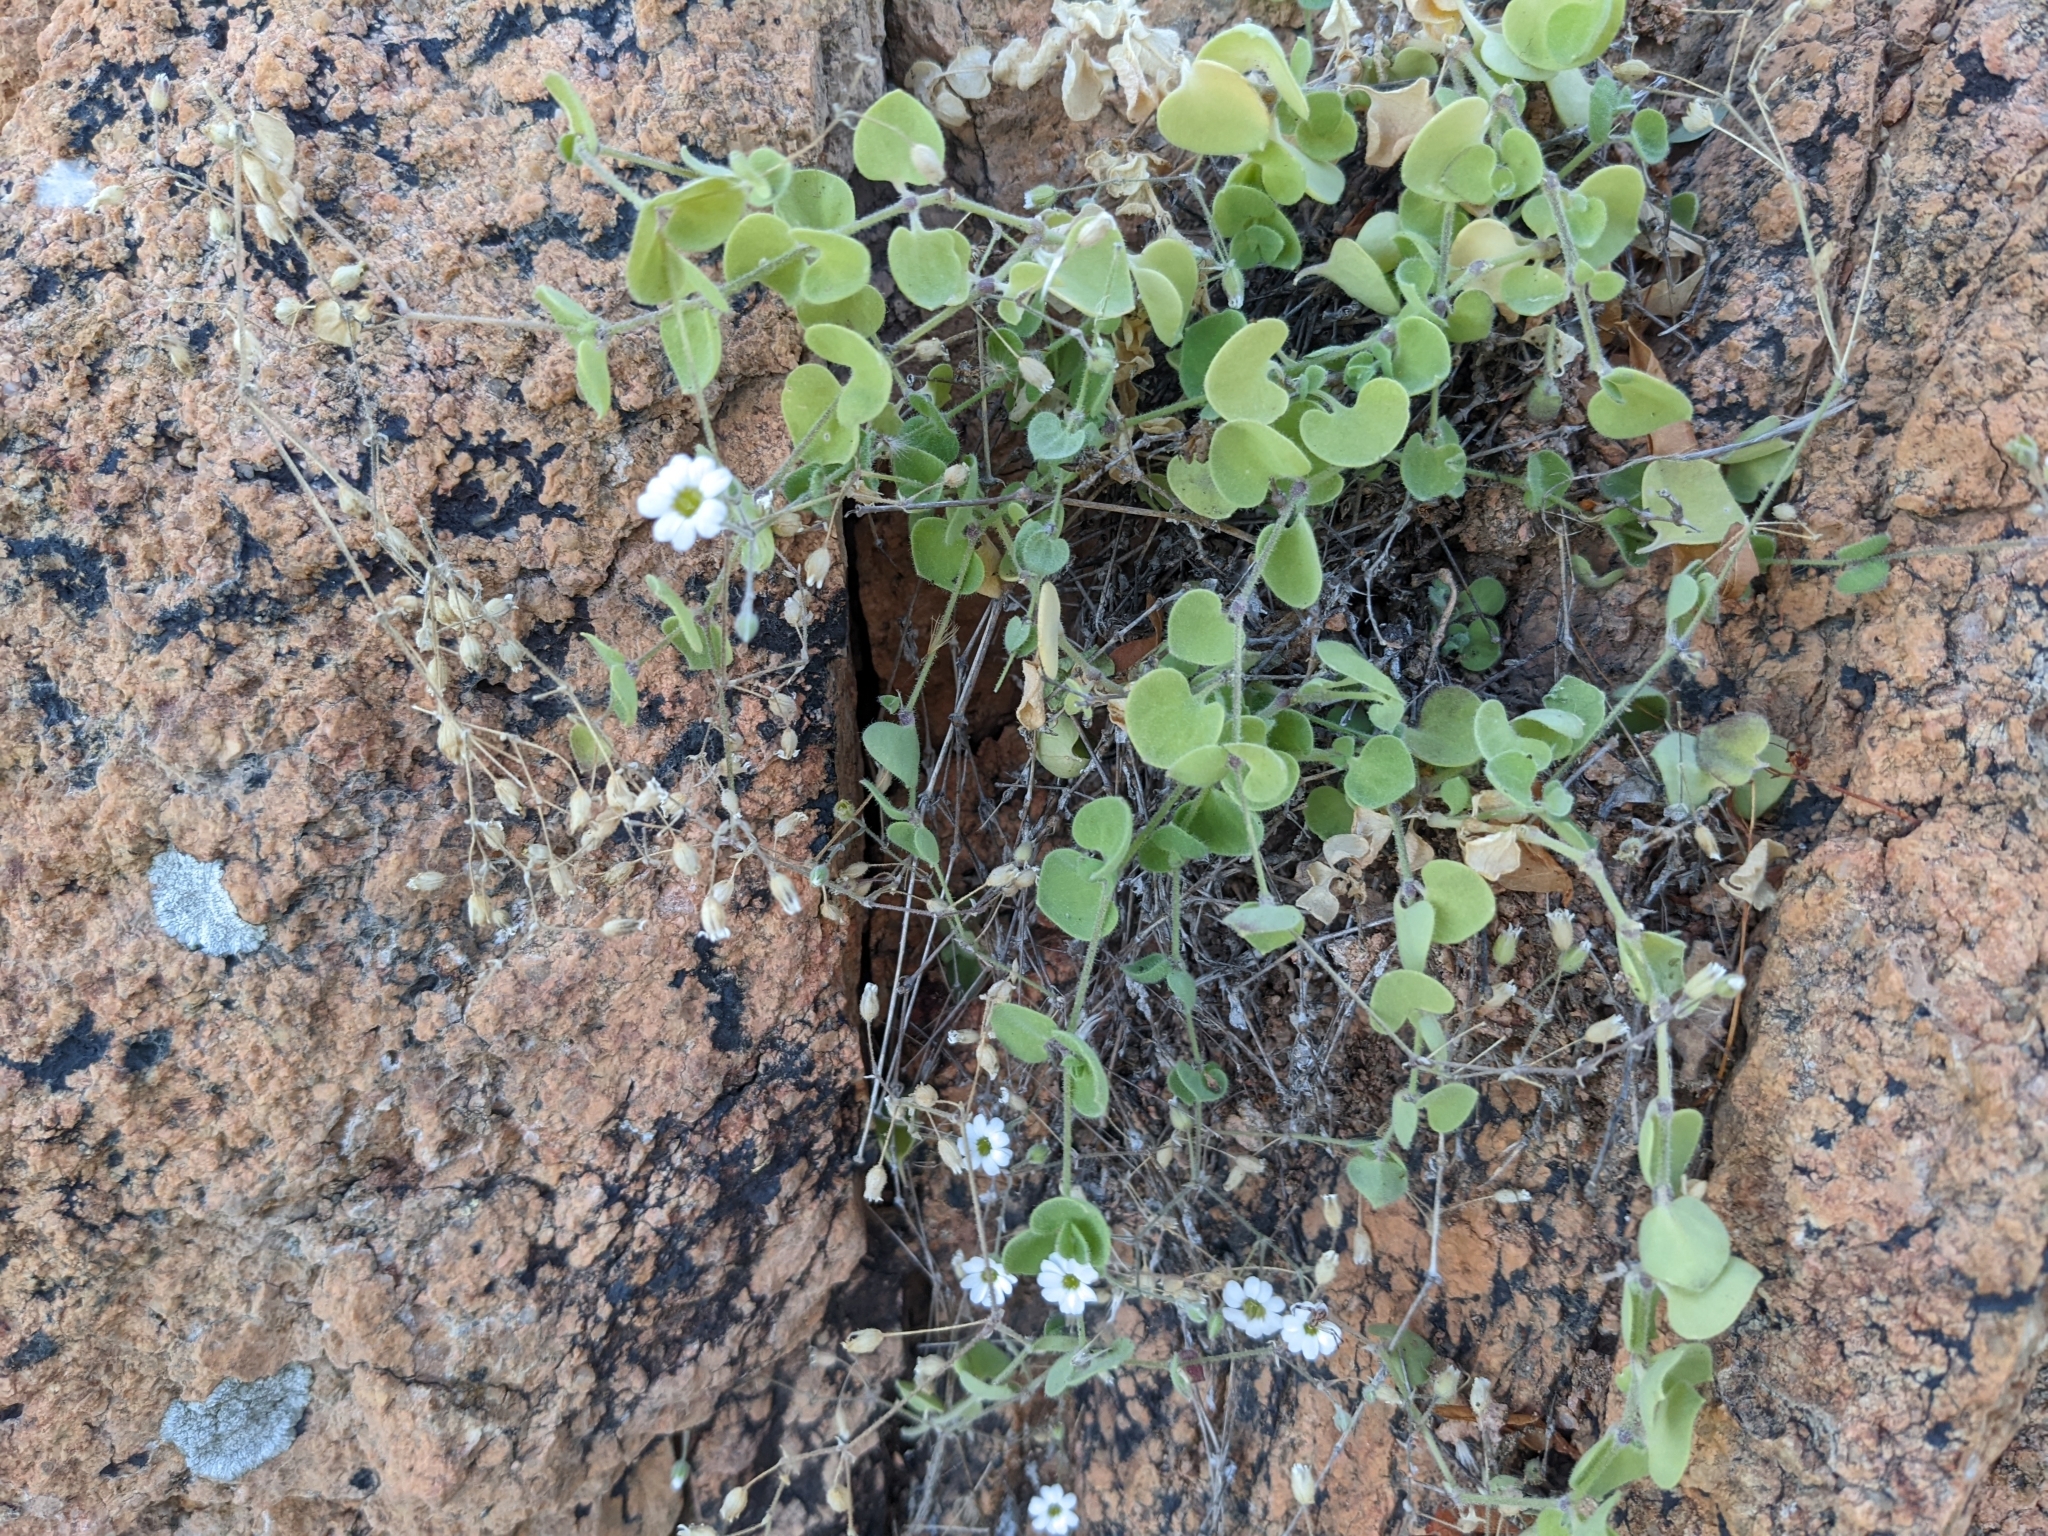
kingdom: Plantae
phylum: Tracheophyta
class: Magnoliopsida
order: Caryophyllales
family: Caryophyllaceae
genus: Drymaria
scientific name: Drymaria debilis
